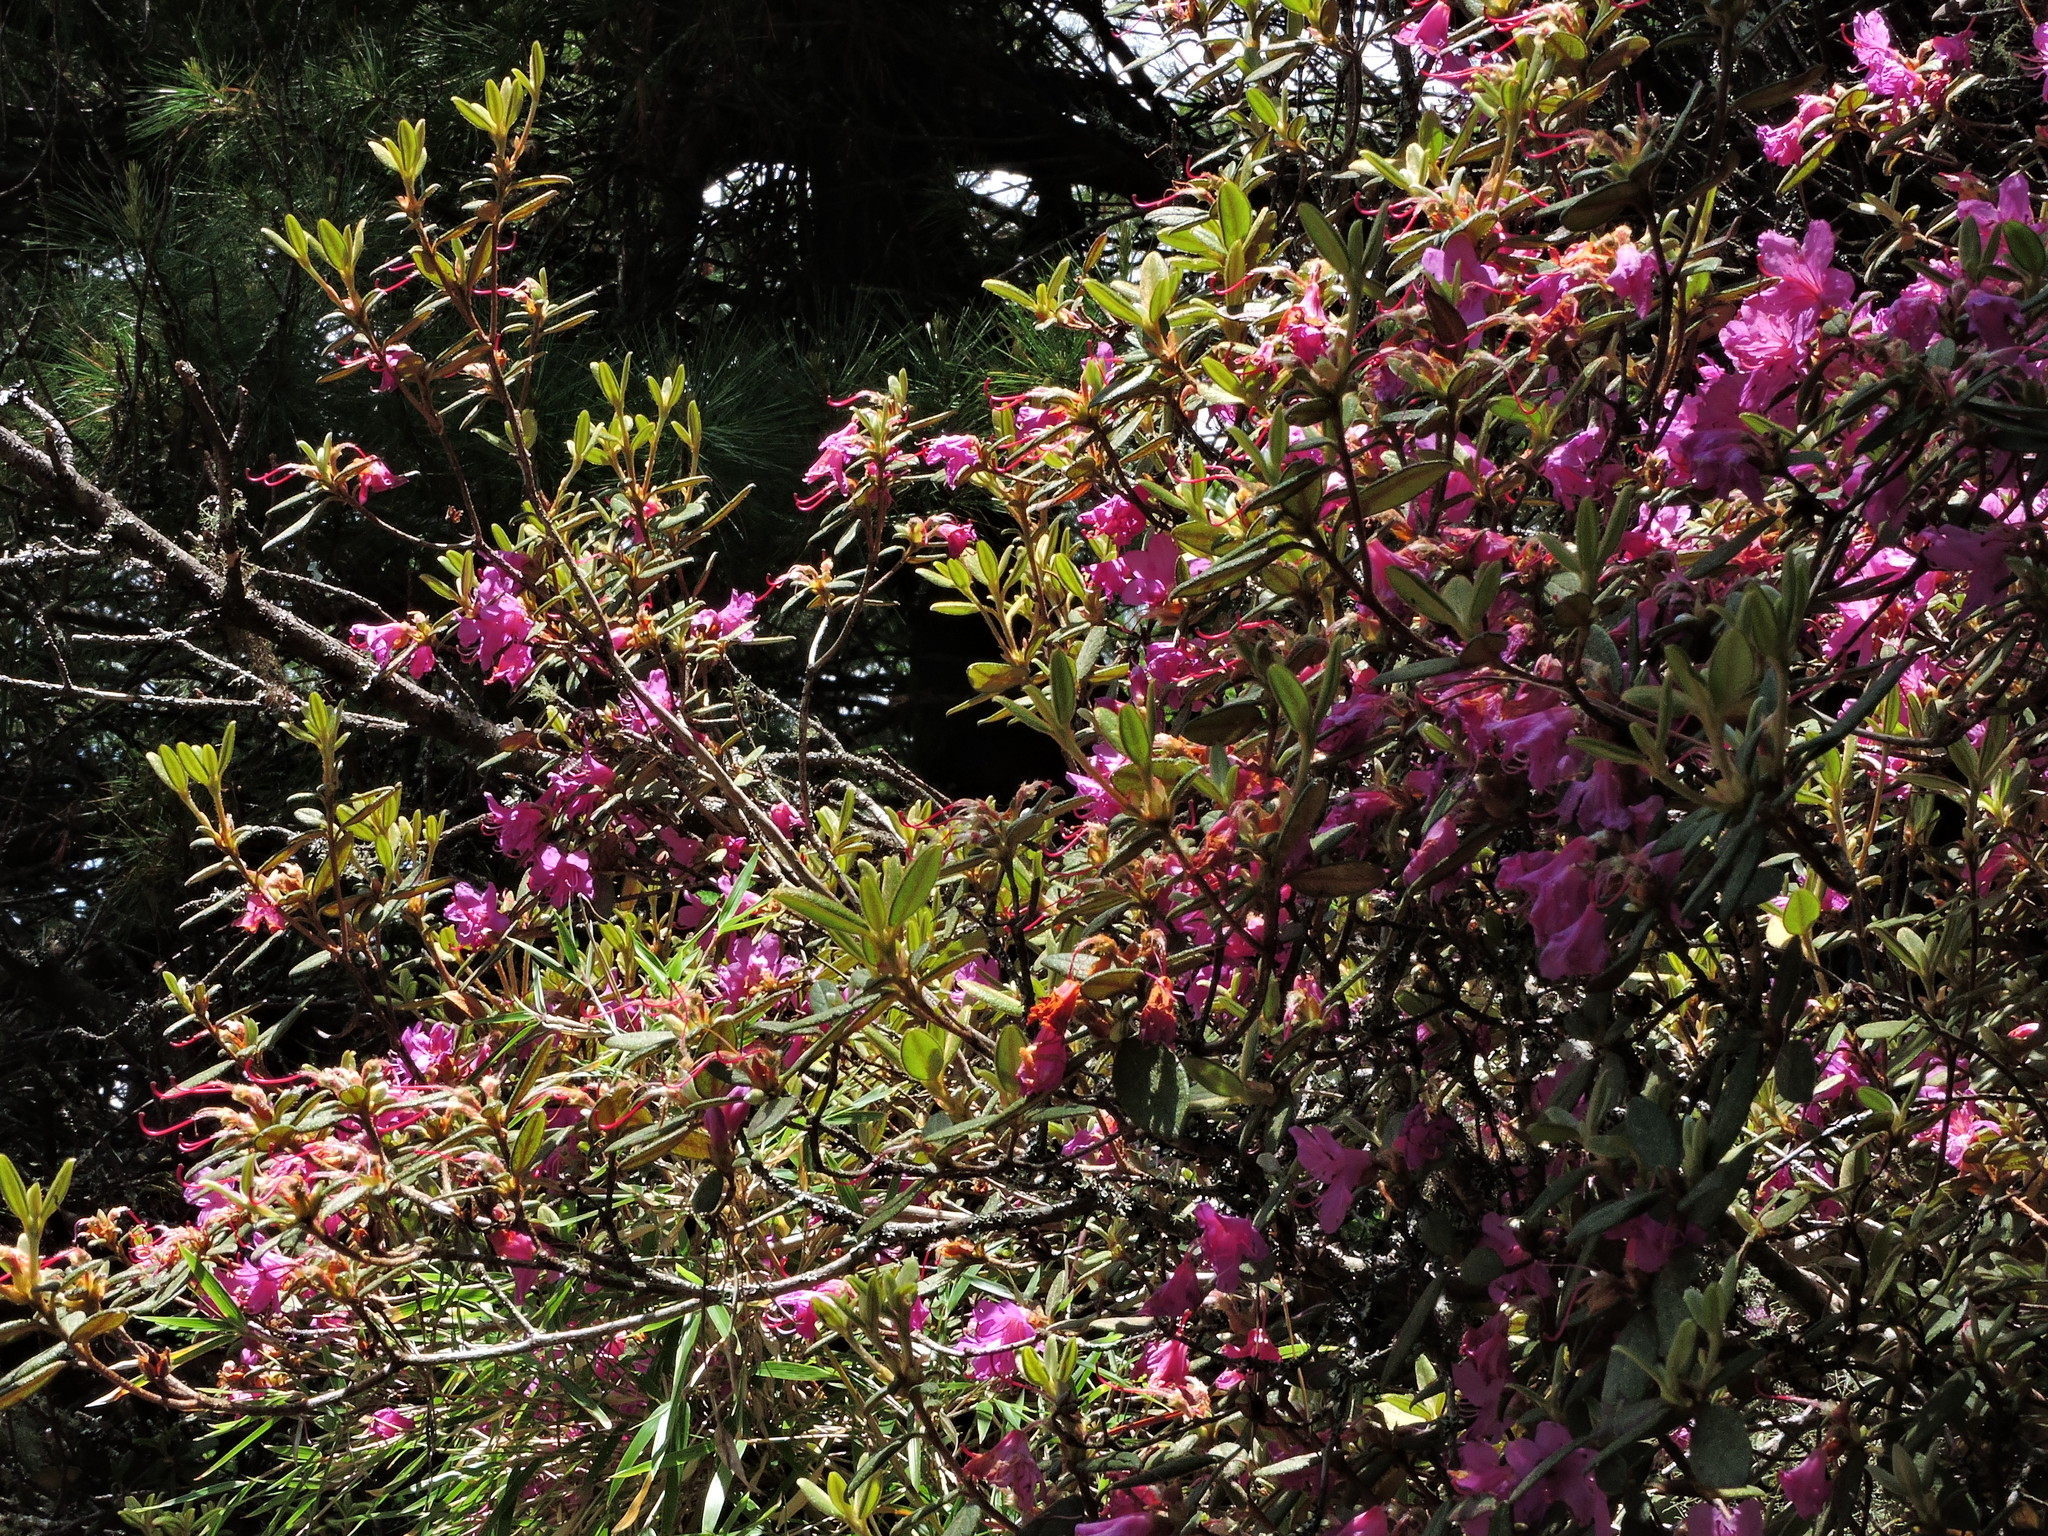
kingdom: Plantae
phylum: Tracheophyta
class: Magnoliopsida
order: Ericales
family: Ericaceae
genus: Rhododendron
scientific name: Rhododendron taiwanalpinum
